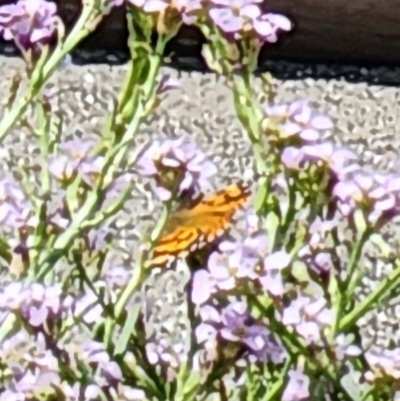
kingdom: Animalia
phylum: Arthropoda
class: Insecta
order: Lepidoptera
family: Nymphalidae
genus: Vanessa
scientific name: Vanessa annabella
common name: West coast lady
